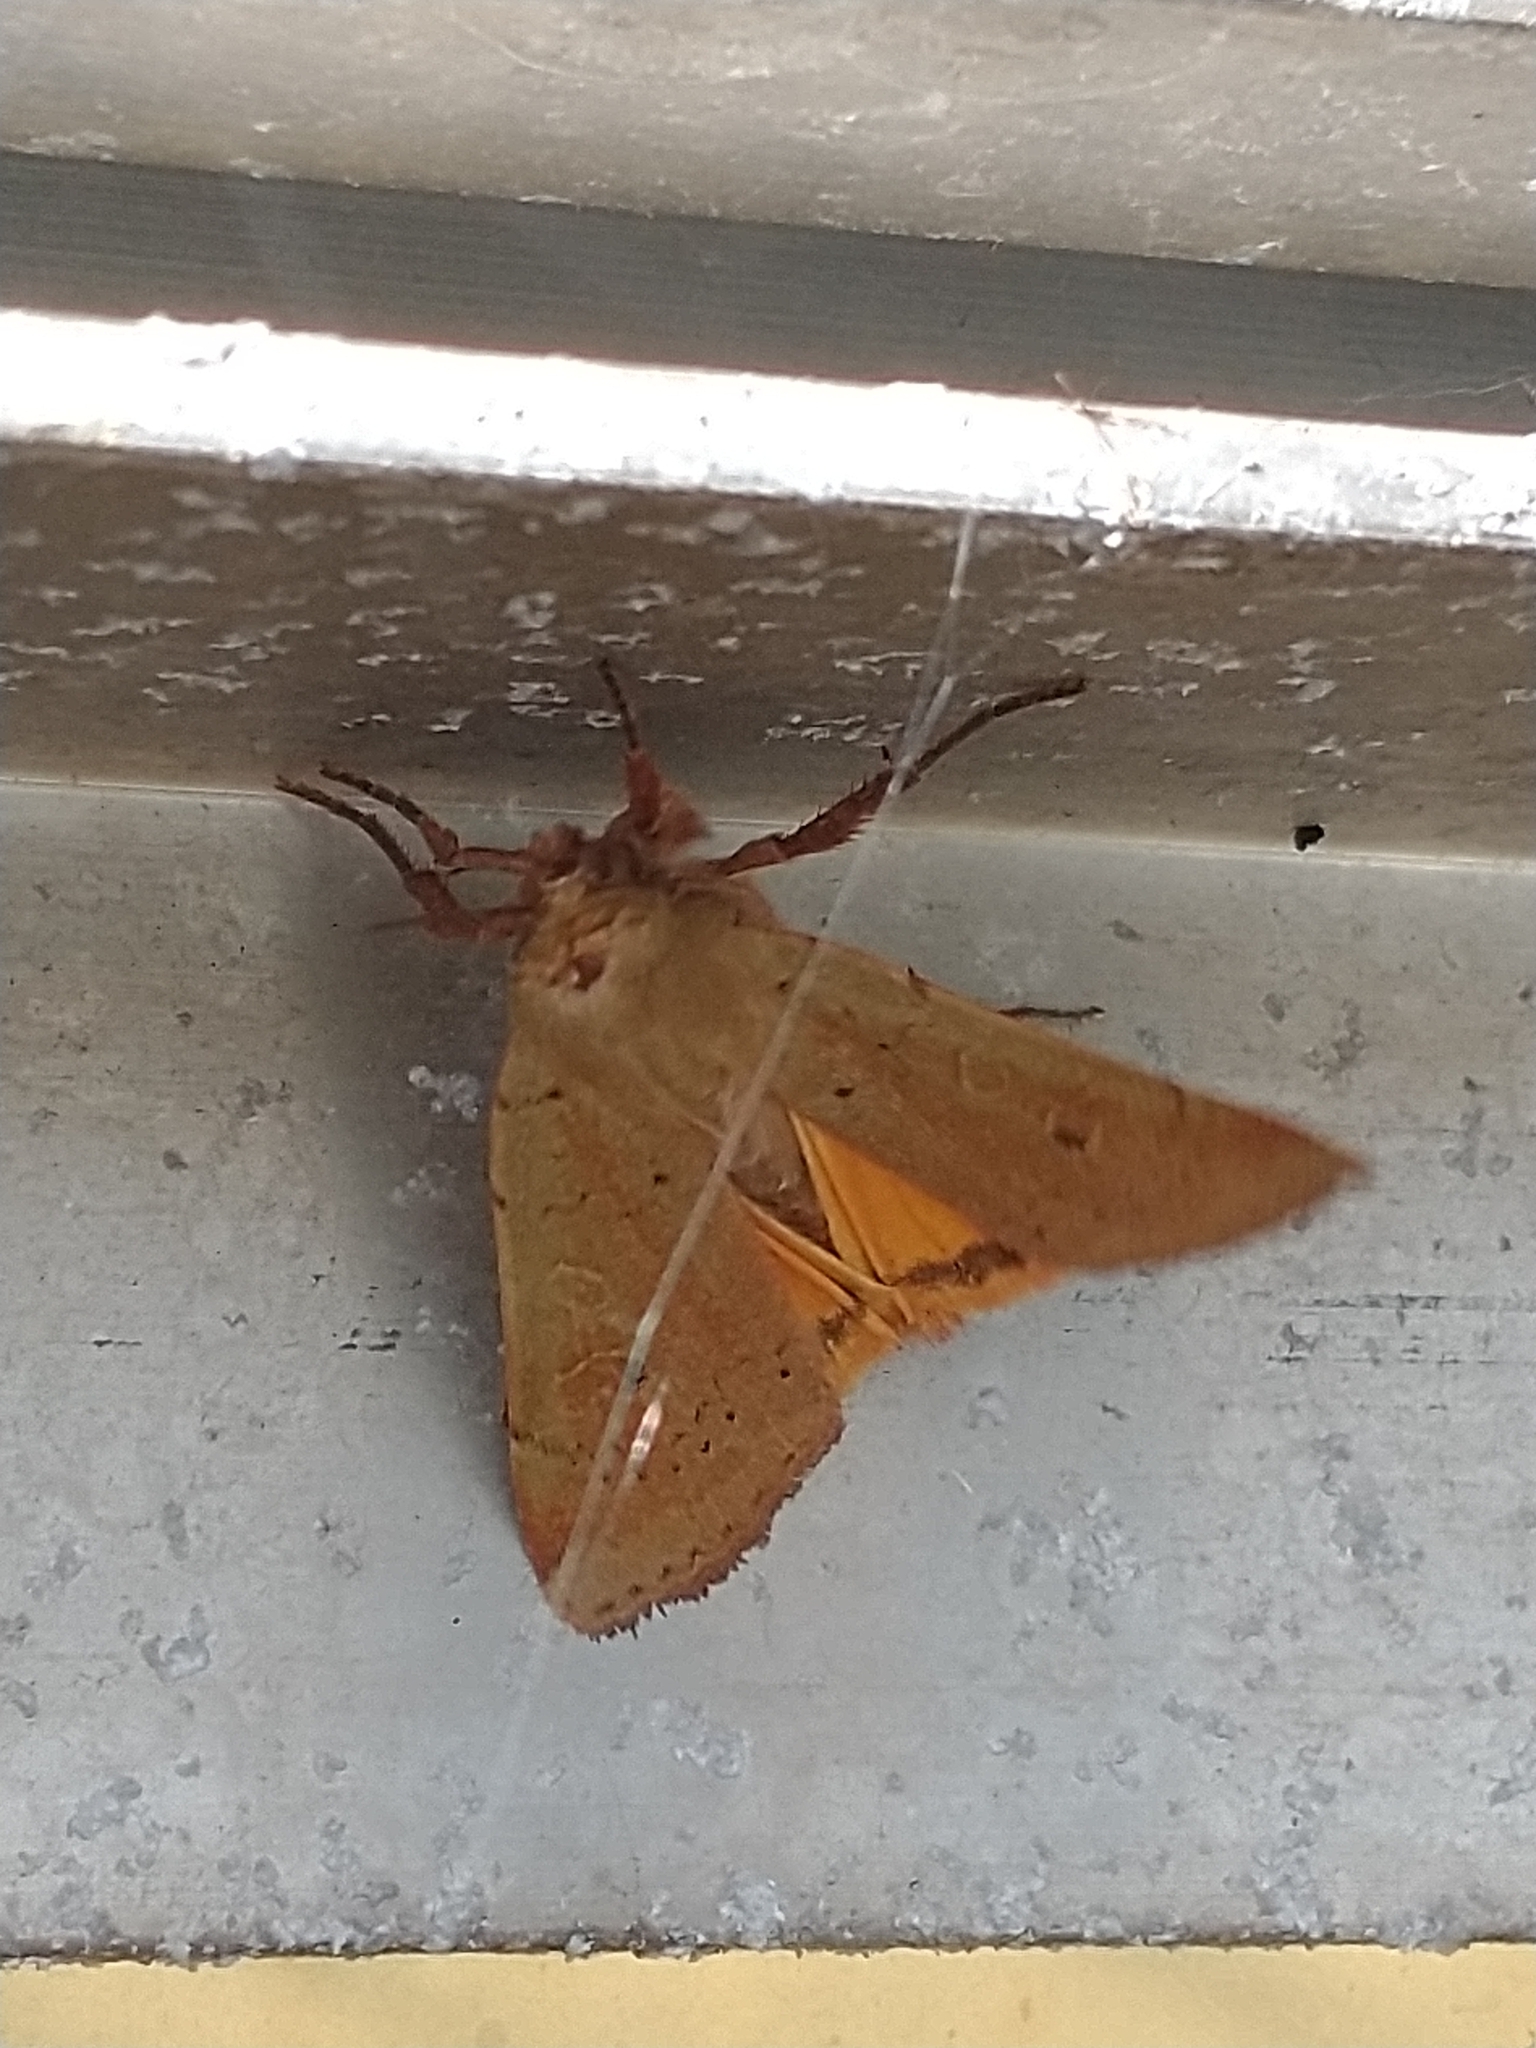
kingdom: Animalia
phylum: Arthropoda
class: Insecta
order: Lepidoptera
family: Noctuidae
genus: Noctua
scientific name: Noctua comes
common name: Lesser yellow underwing
